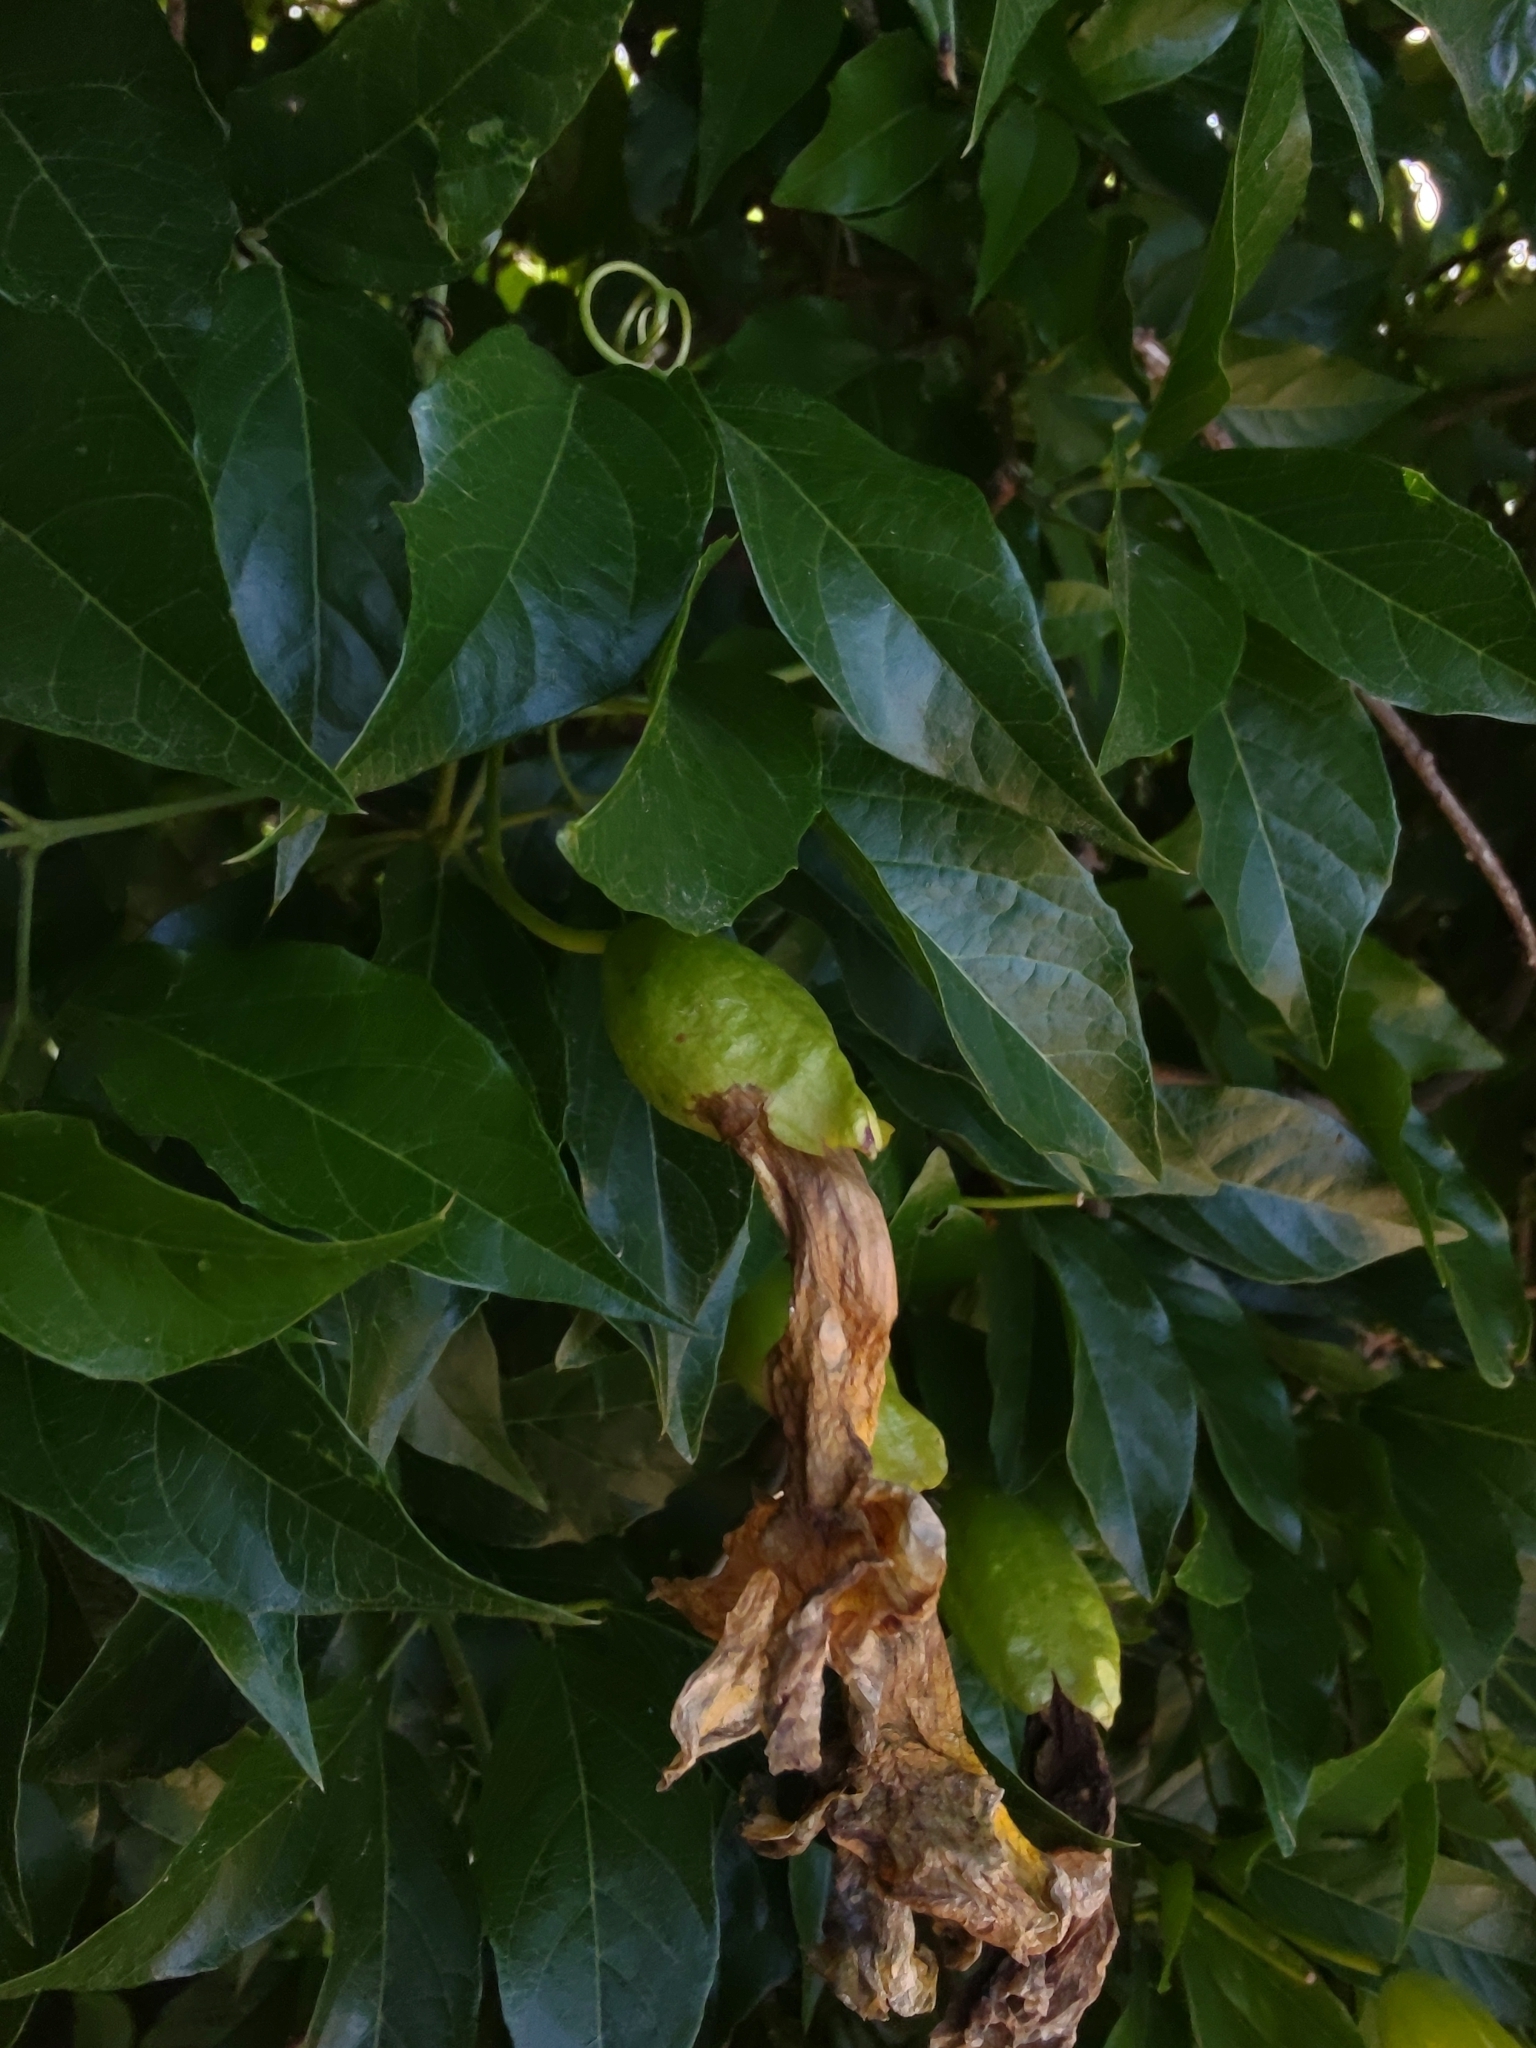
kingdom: Plantae
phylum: Tracheophyta
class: Magnoliopsida
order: Lamiales
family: Bignoniaceae
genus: Dolichandra
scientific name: Dolichandra unguis-cati
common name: Catclaw vine
